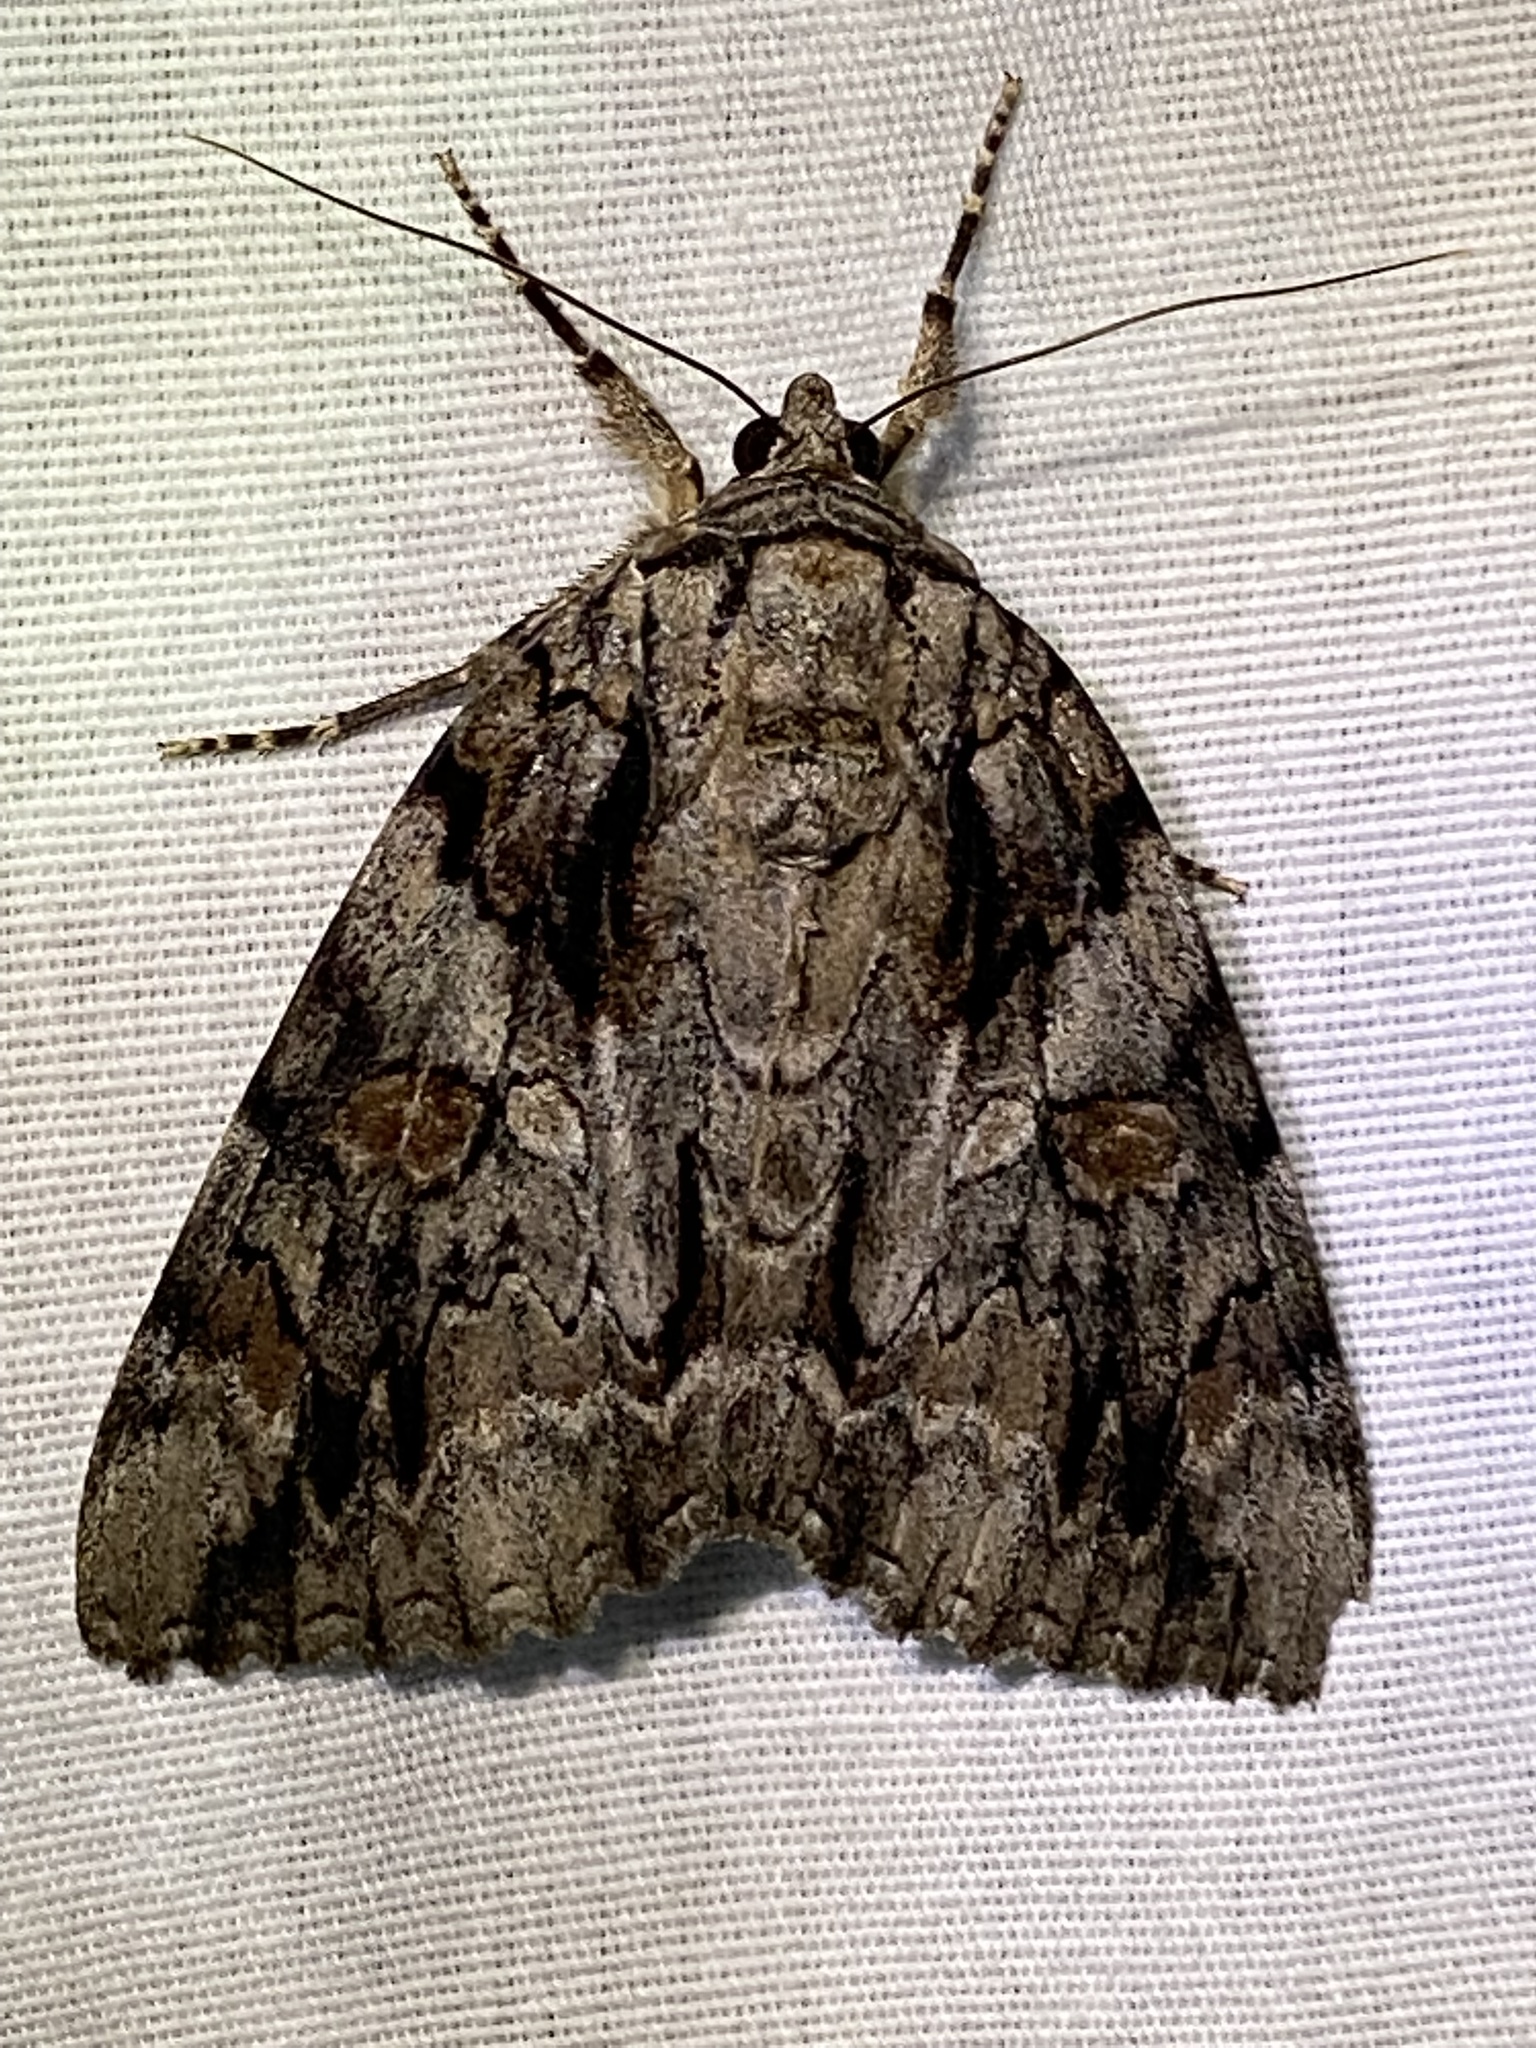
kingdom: Animalia
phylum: Arthropoda
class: Insecta
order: Lepidoptera
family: Erebidae
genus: Catocala
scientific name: Catocala neogama
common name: Bride underwing
